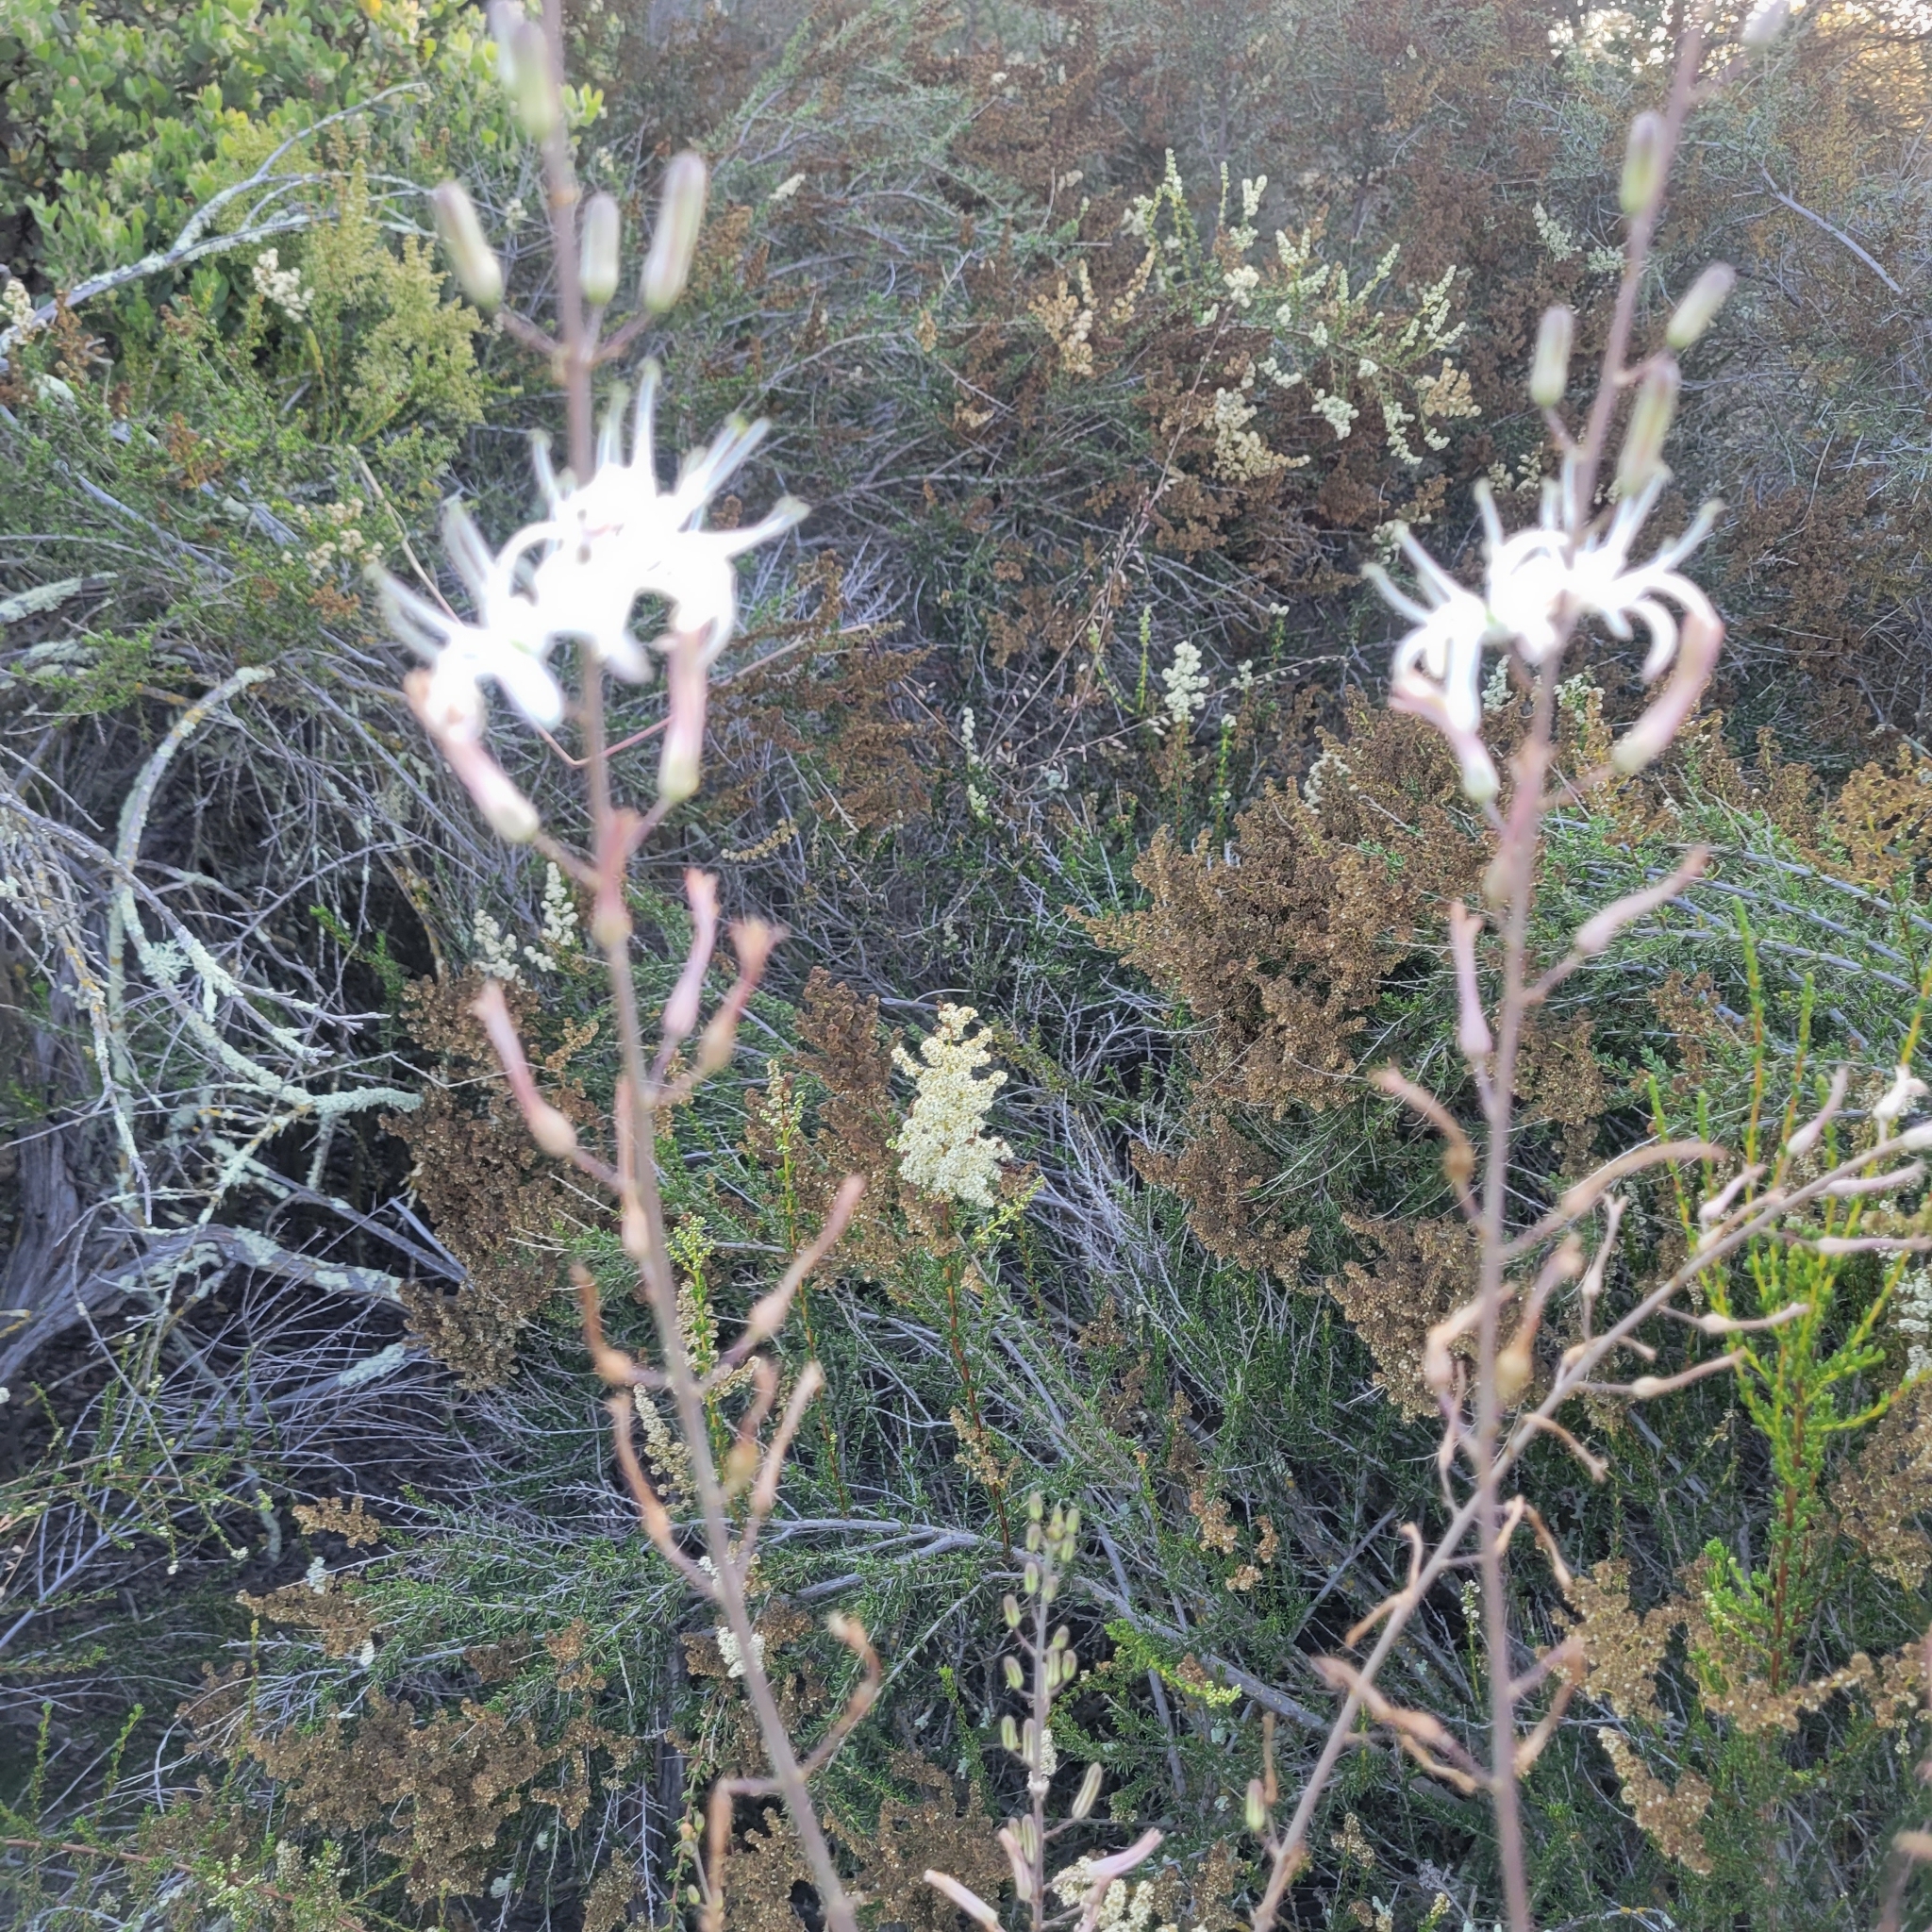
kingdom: Plantae
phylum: Tracheophyta
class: Liliopsida
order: Asparagales
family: Asparagaceae
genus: Chlorogalum
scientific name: Chlorogalum pomeridianum
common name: Amole
